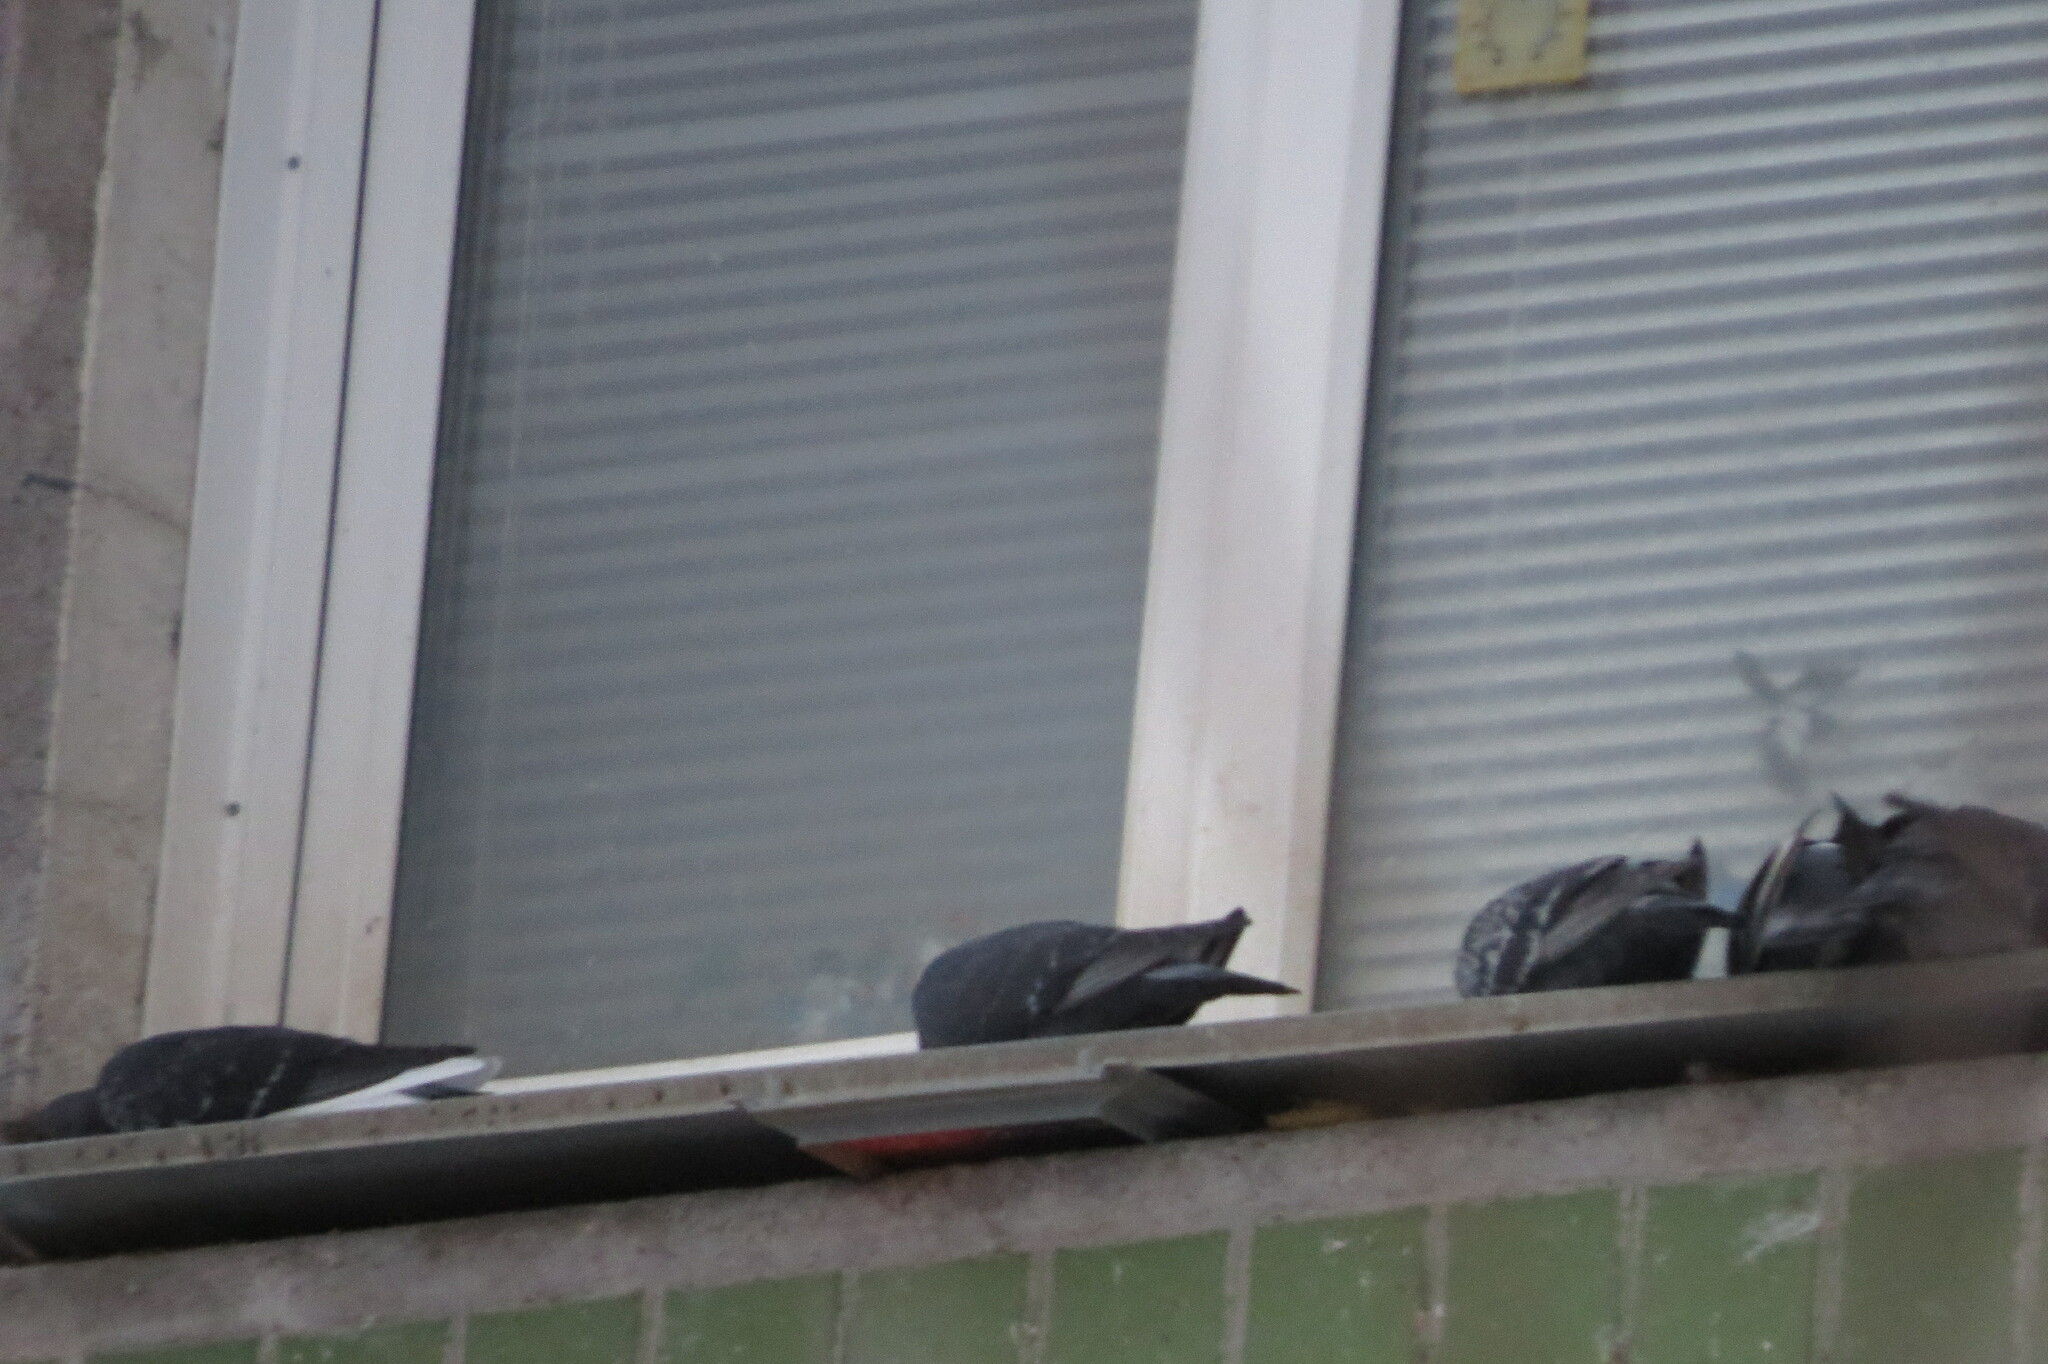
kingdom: Animalia
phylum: Chordata
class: Aves
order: Columbiformes
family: Columbidae
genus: Columba
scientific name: Columba livia
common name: Rock pigeon
